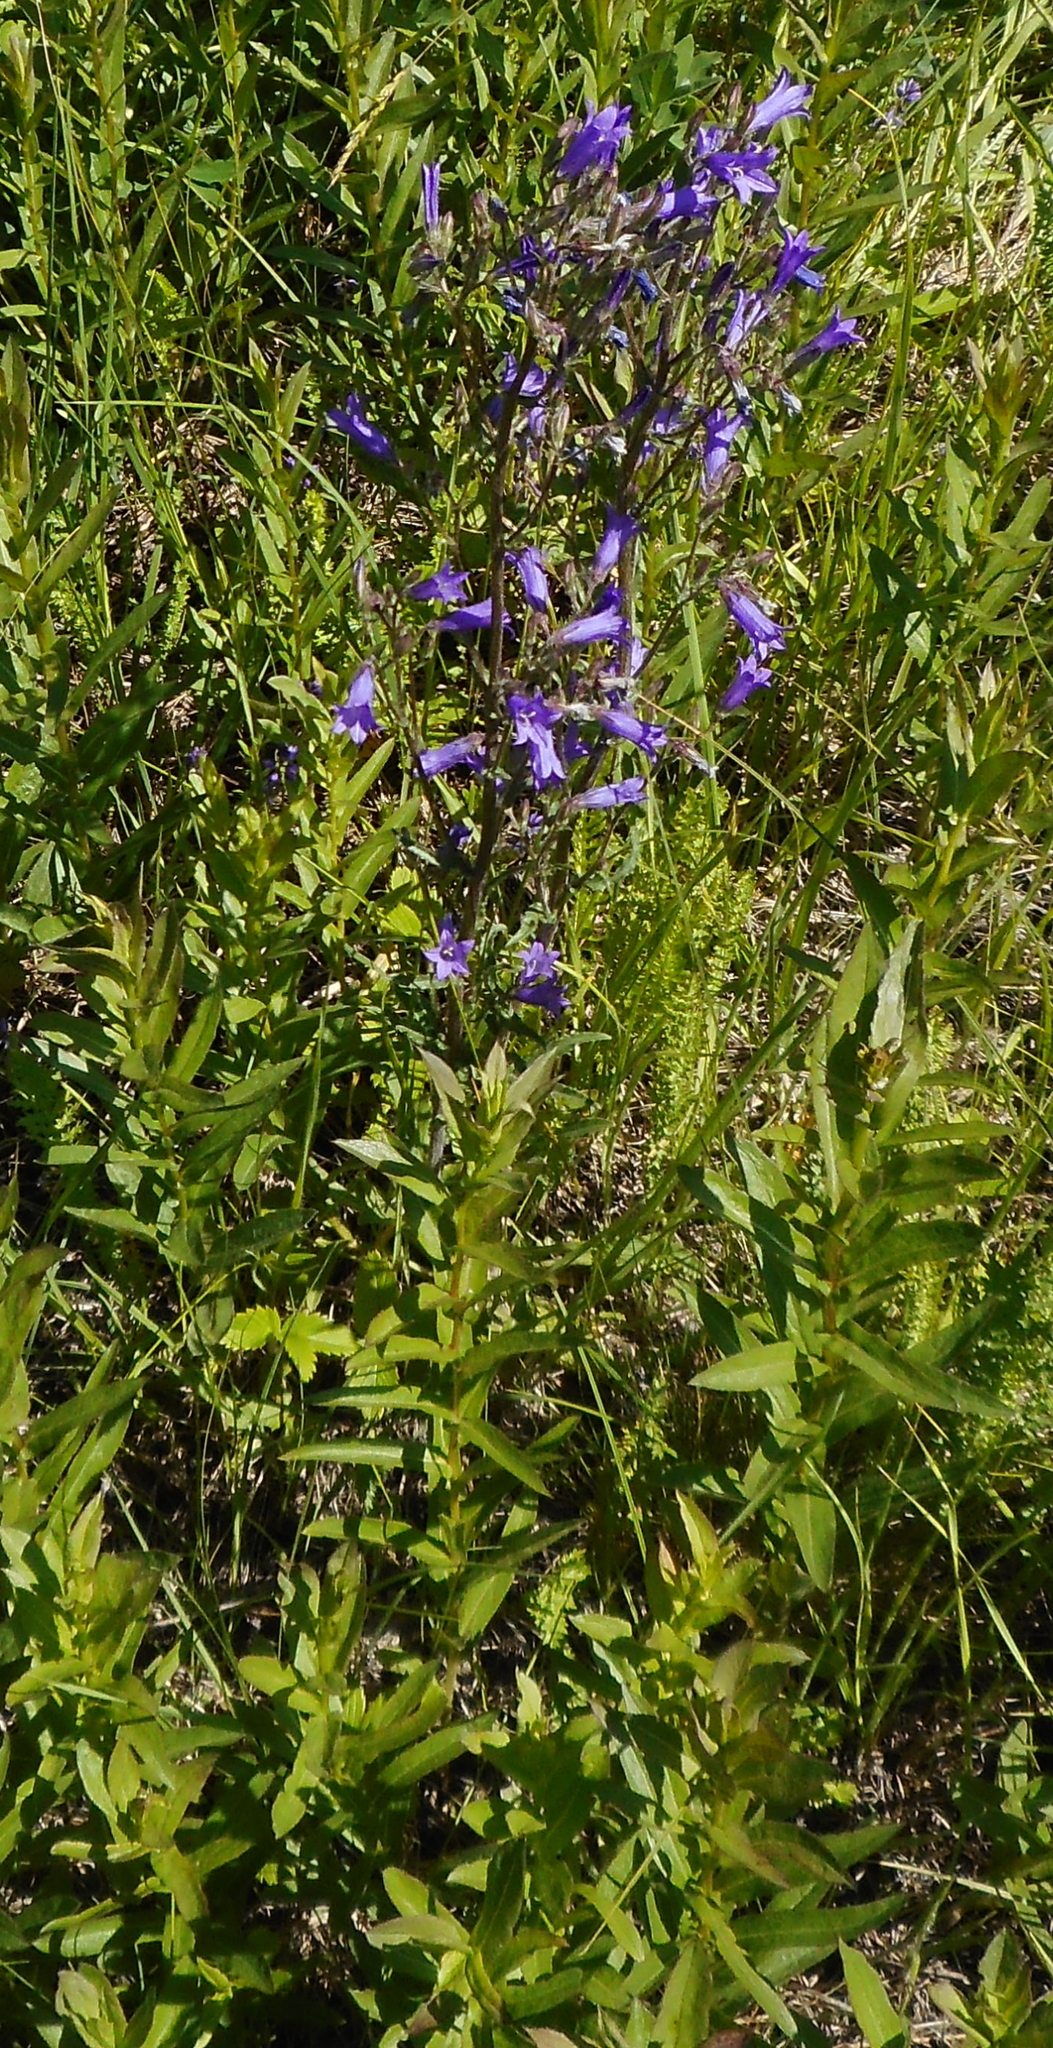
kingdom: Plantae
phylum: Tracheophyta
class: Magnoliopsida
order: Asterales
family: Campanulaceae
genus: Campanula
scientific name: Campanula sibirica
